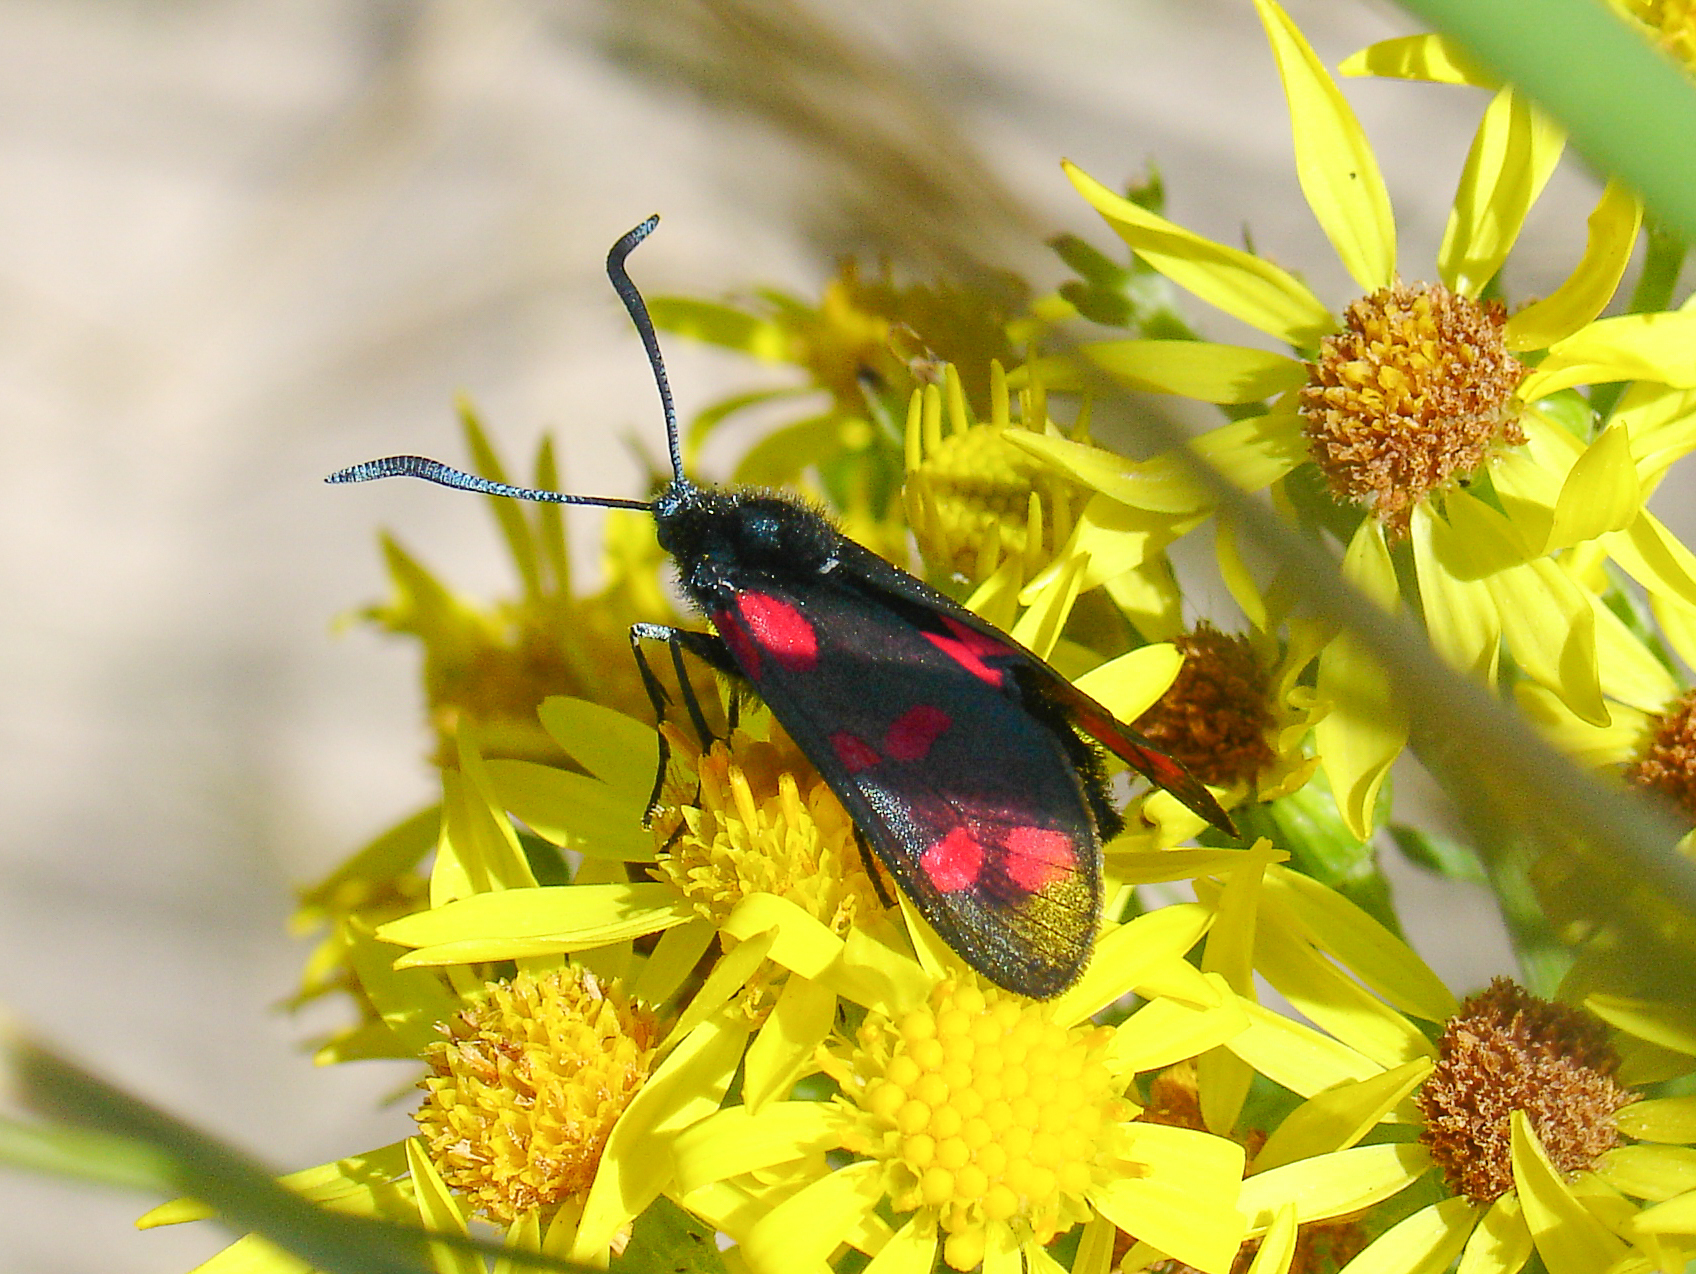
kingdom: Animalia
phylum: Arthropoda
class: Insecta
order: Lepidoptera
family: Zygaenidae
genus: Zygaena
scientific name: Zygaena filipendulae
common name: Six-spot burnet
